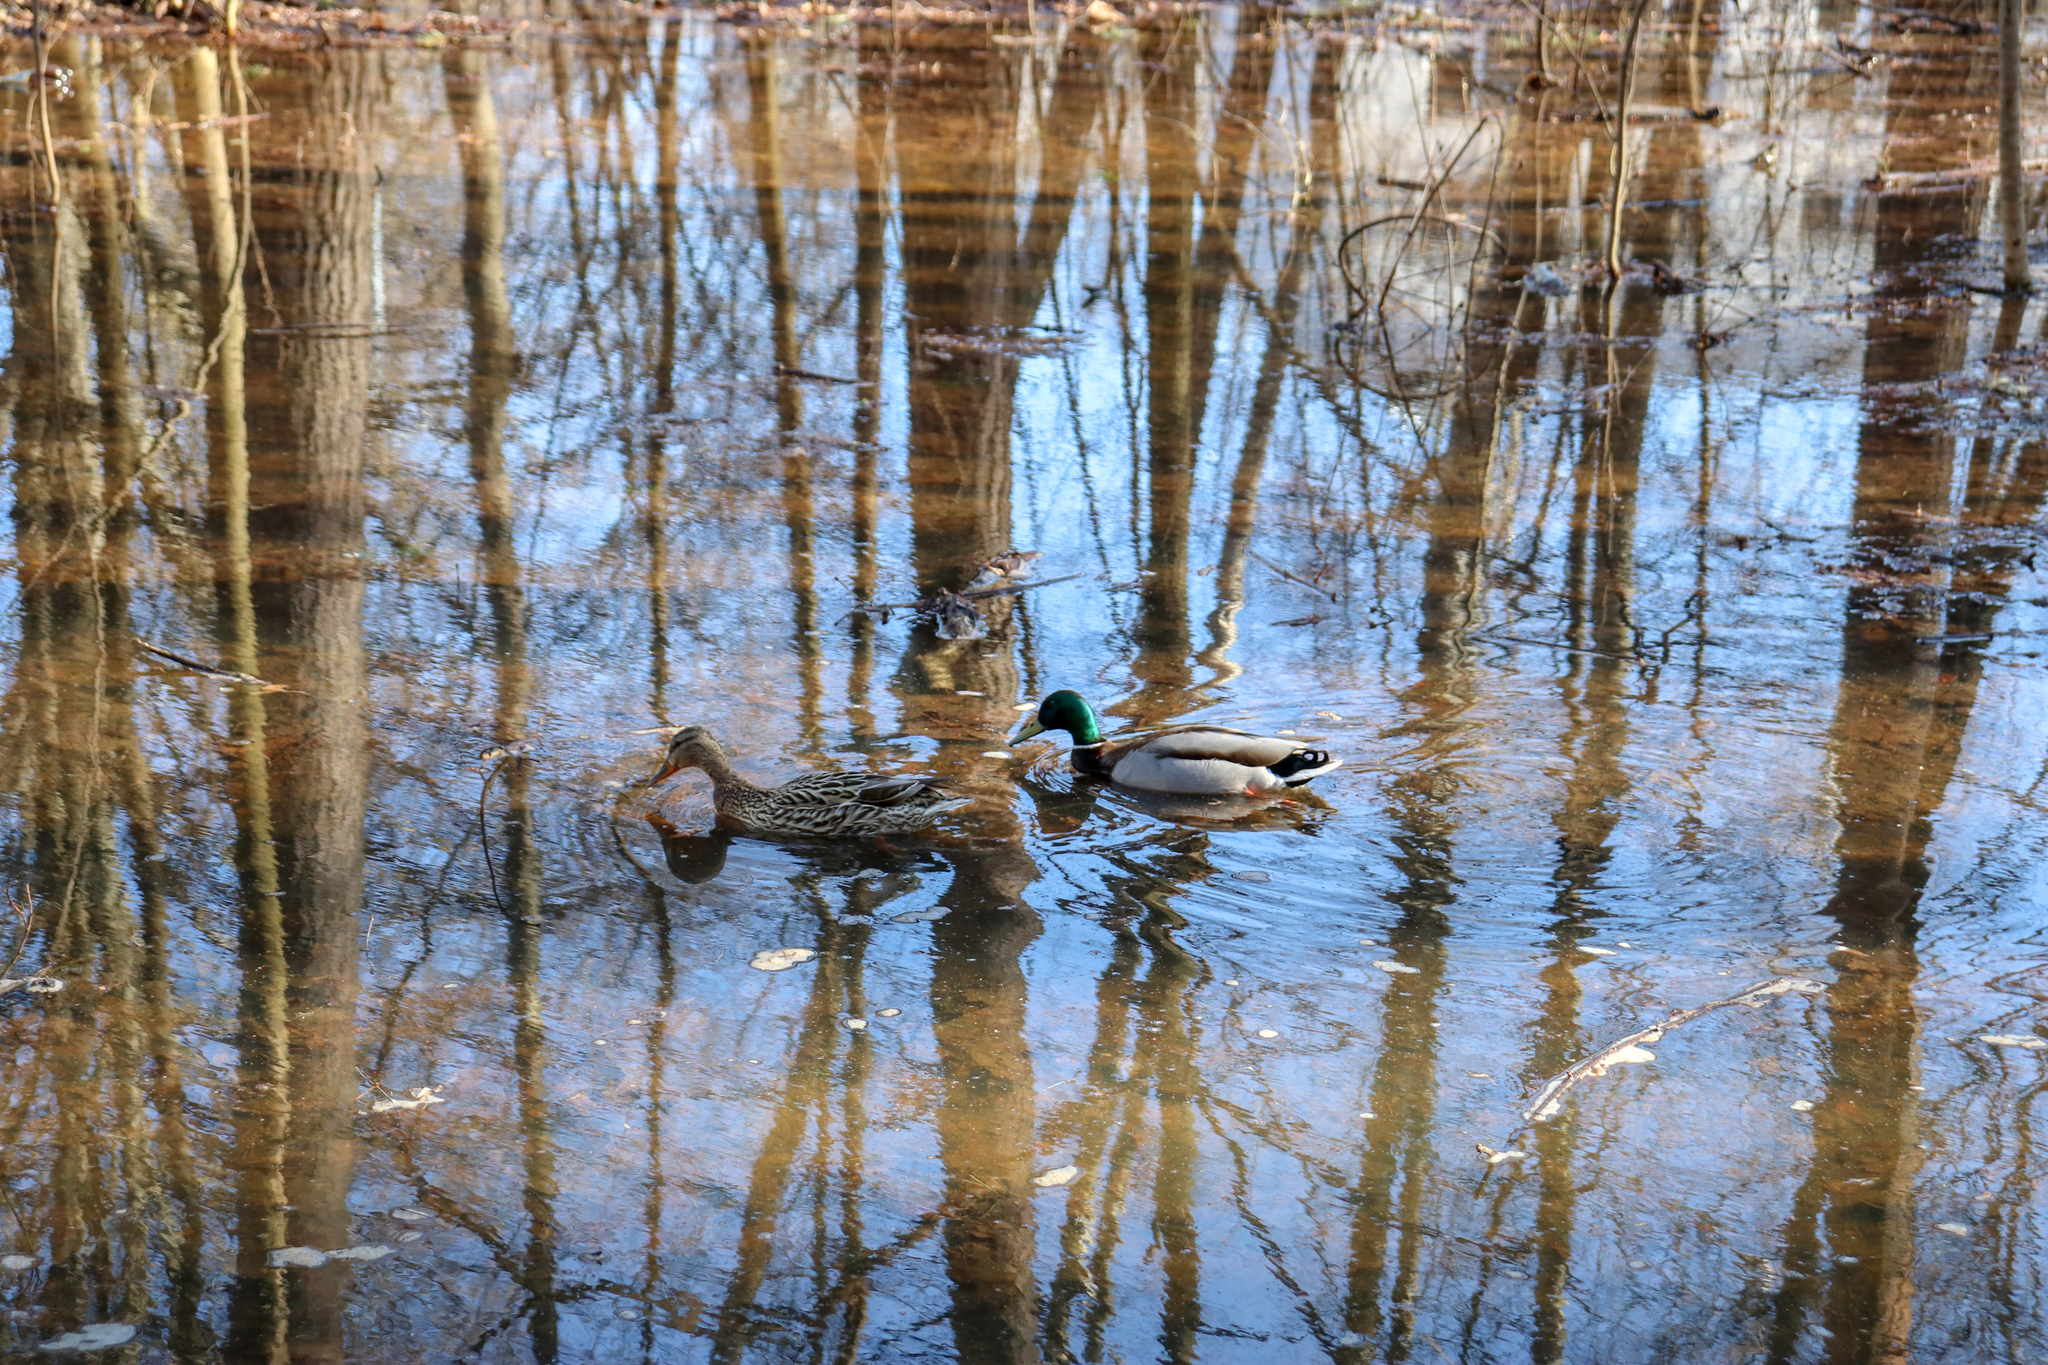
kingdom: Animalia
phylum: Chordata
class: Aves
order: Anseriformes
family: Anatidae
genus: Anas
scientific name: Anas platyrhynchos
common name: Mallard
